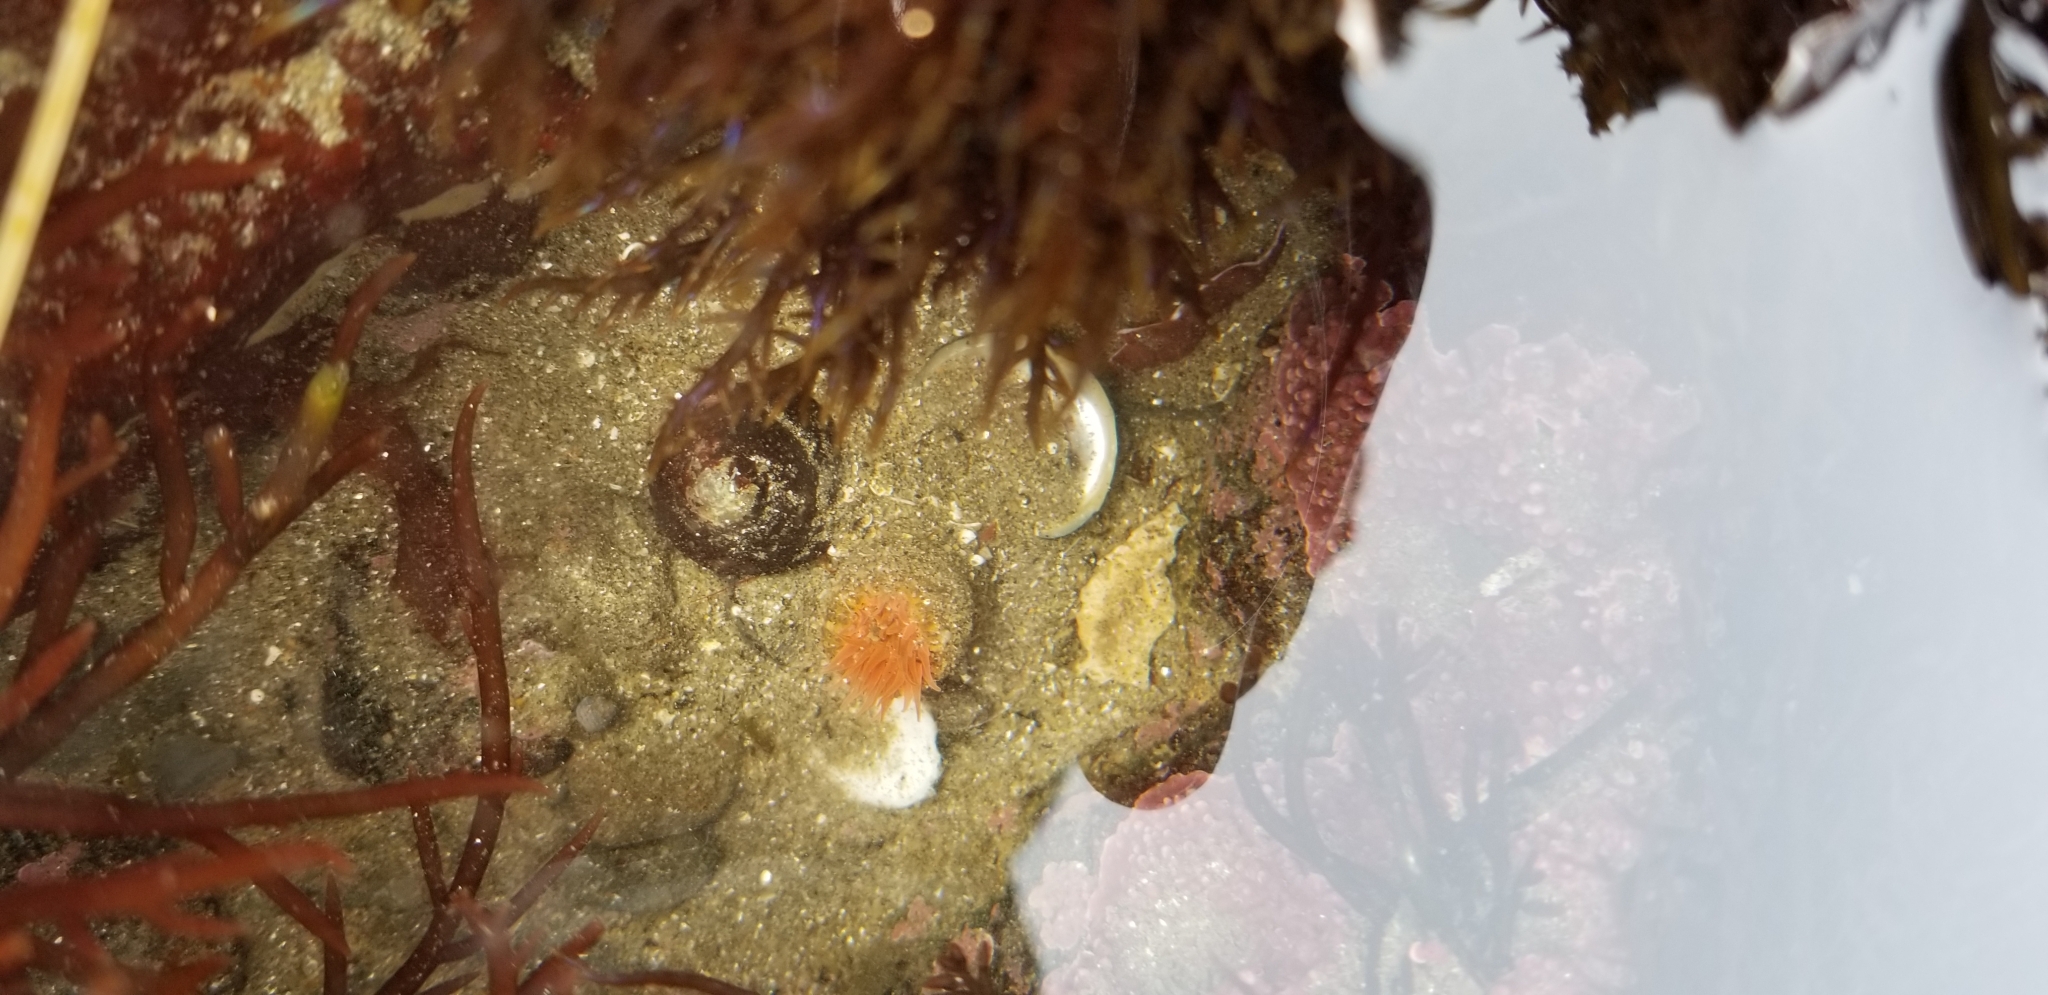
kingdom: Animalia
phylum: Cnidaria
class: Anthozoa
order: Actiniaria
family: Actiniidae
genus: Anthopleura
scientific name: Anthopleura artemisia
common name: Buried sea anemone
